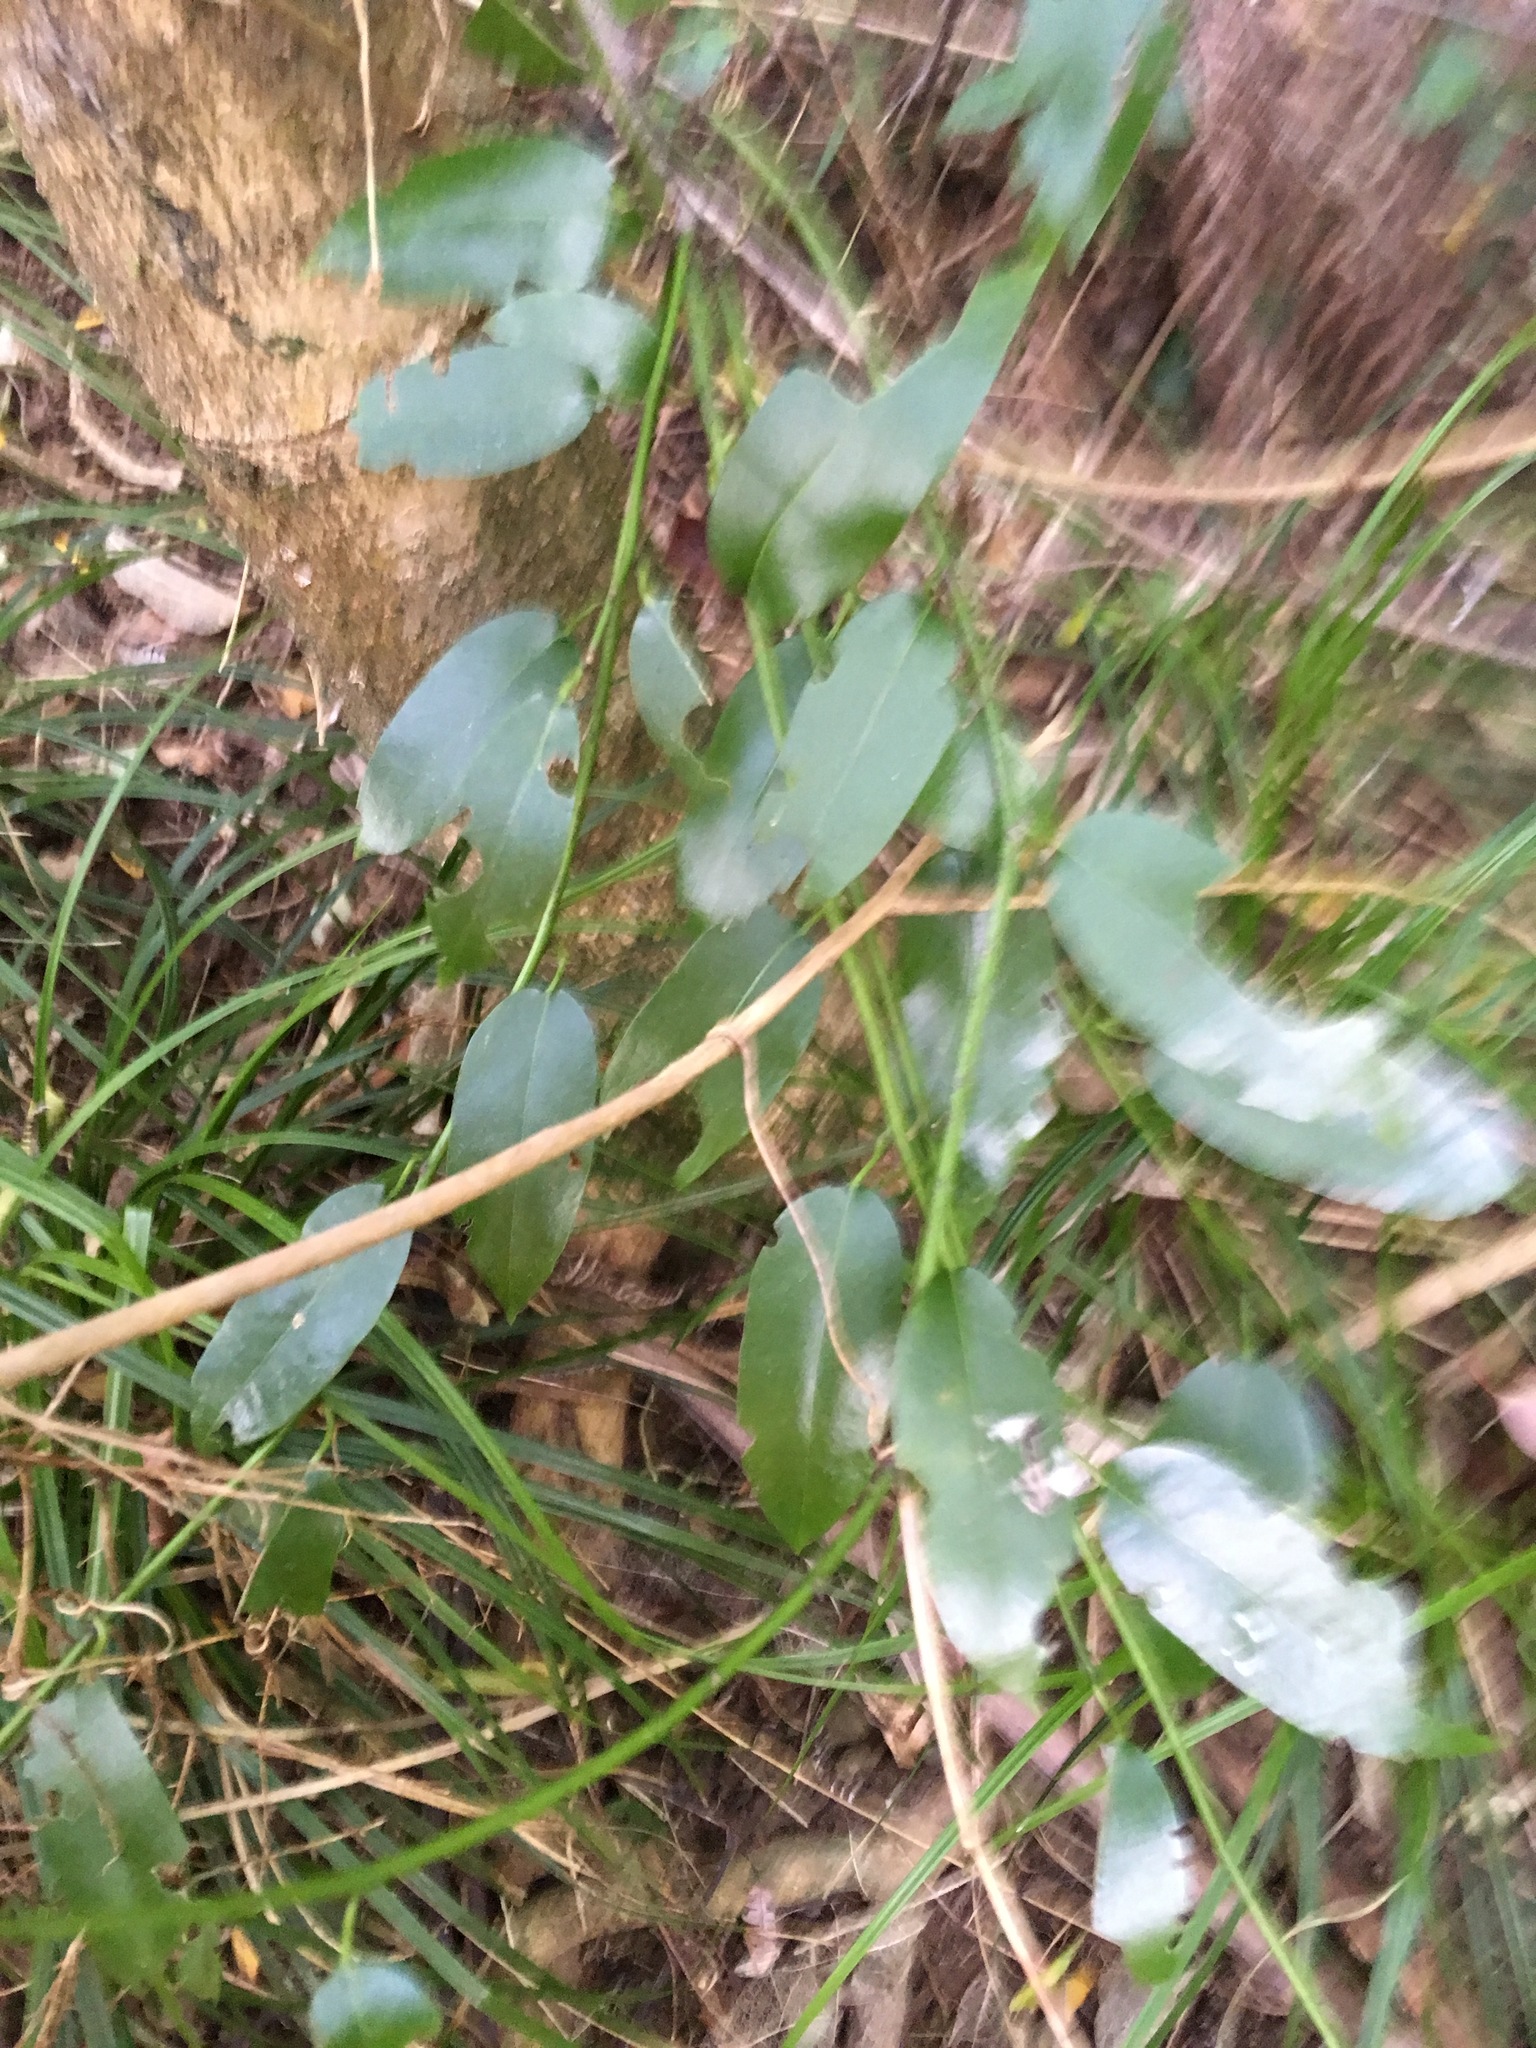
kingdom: Plantae
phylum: Tracheophyta
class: Magnoliopsida
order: Malpighiales
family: Passifloraceae
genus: Passiflora
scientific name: Passiflora tetrandra
